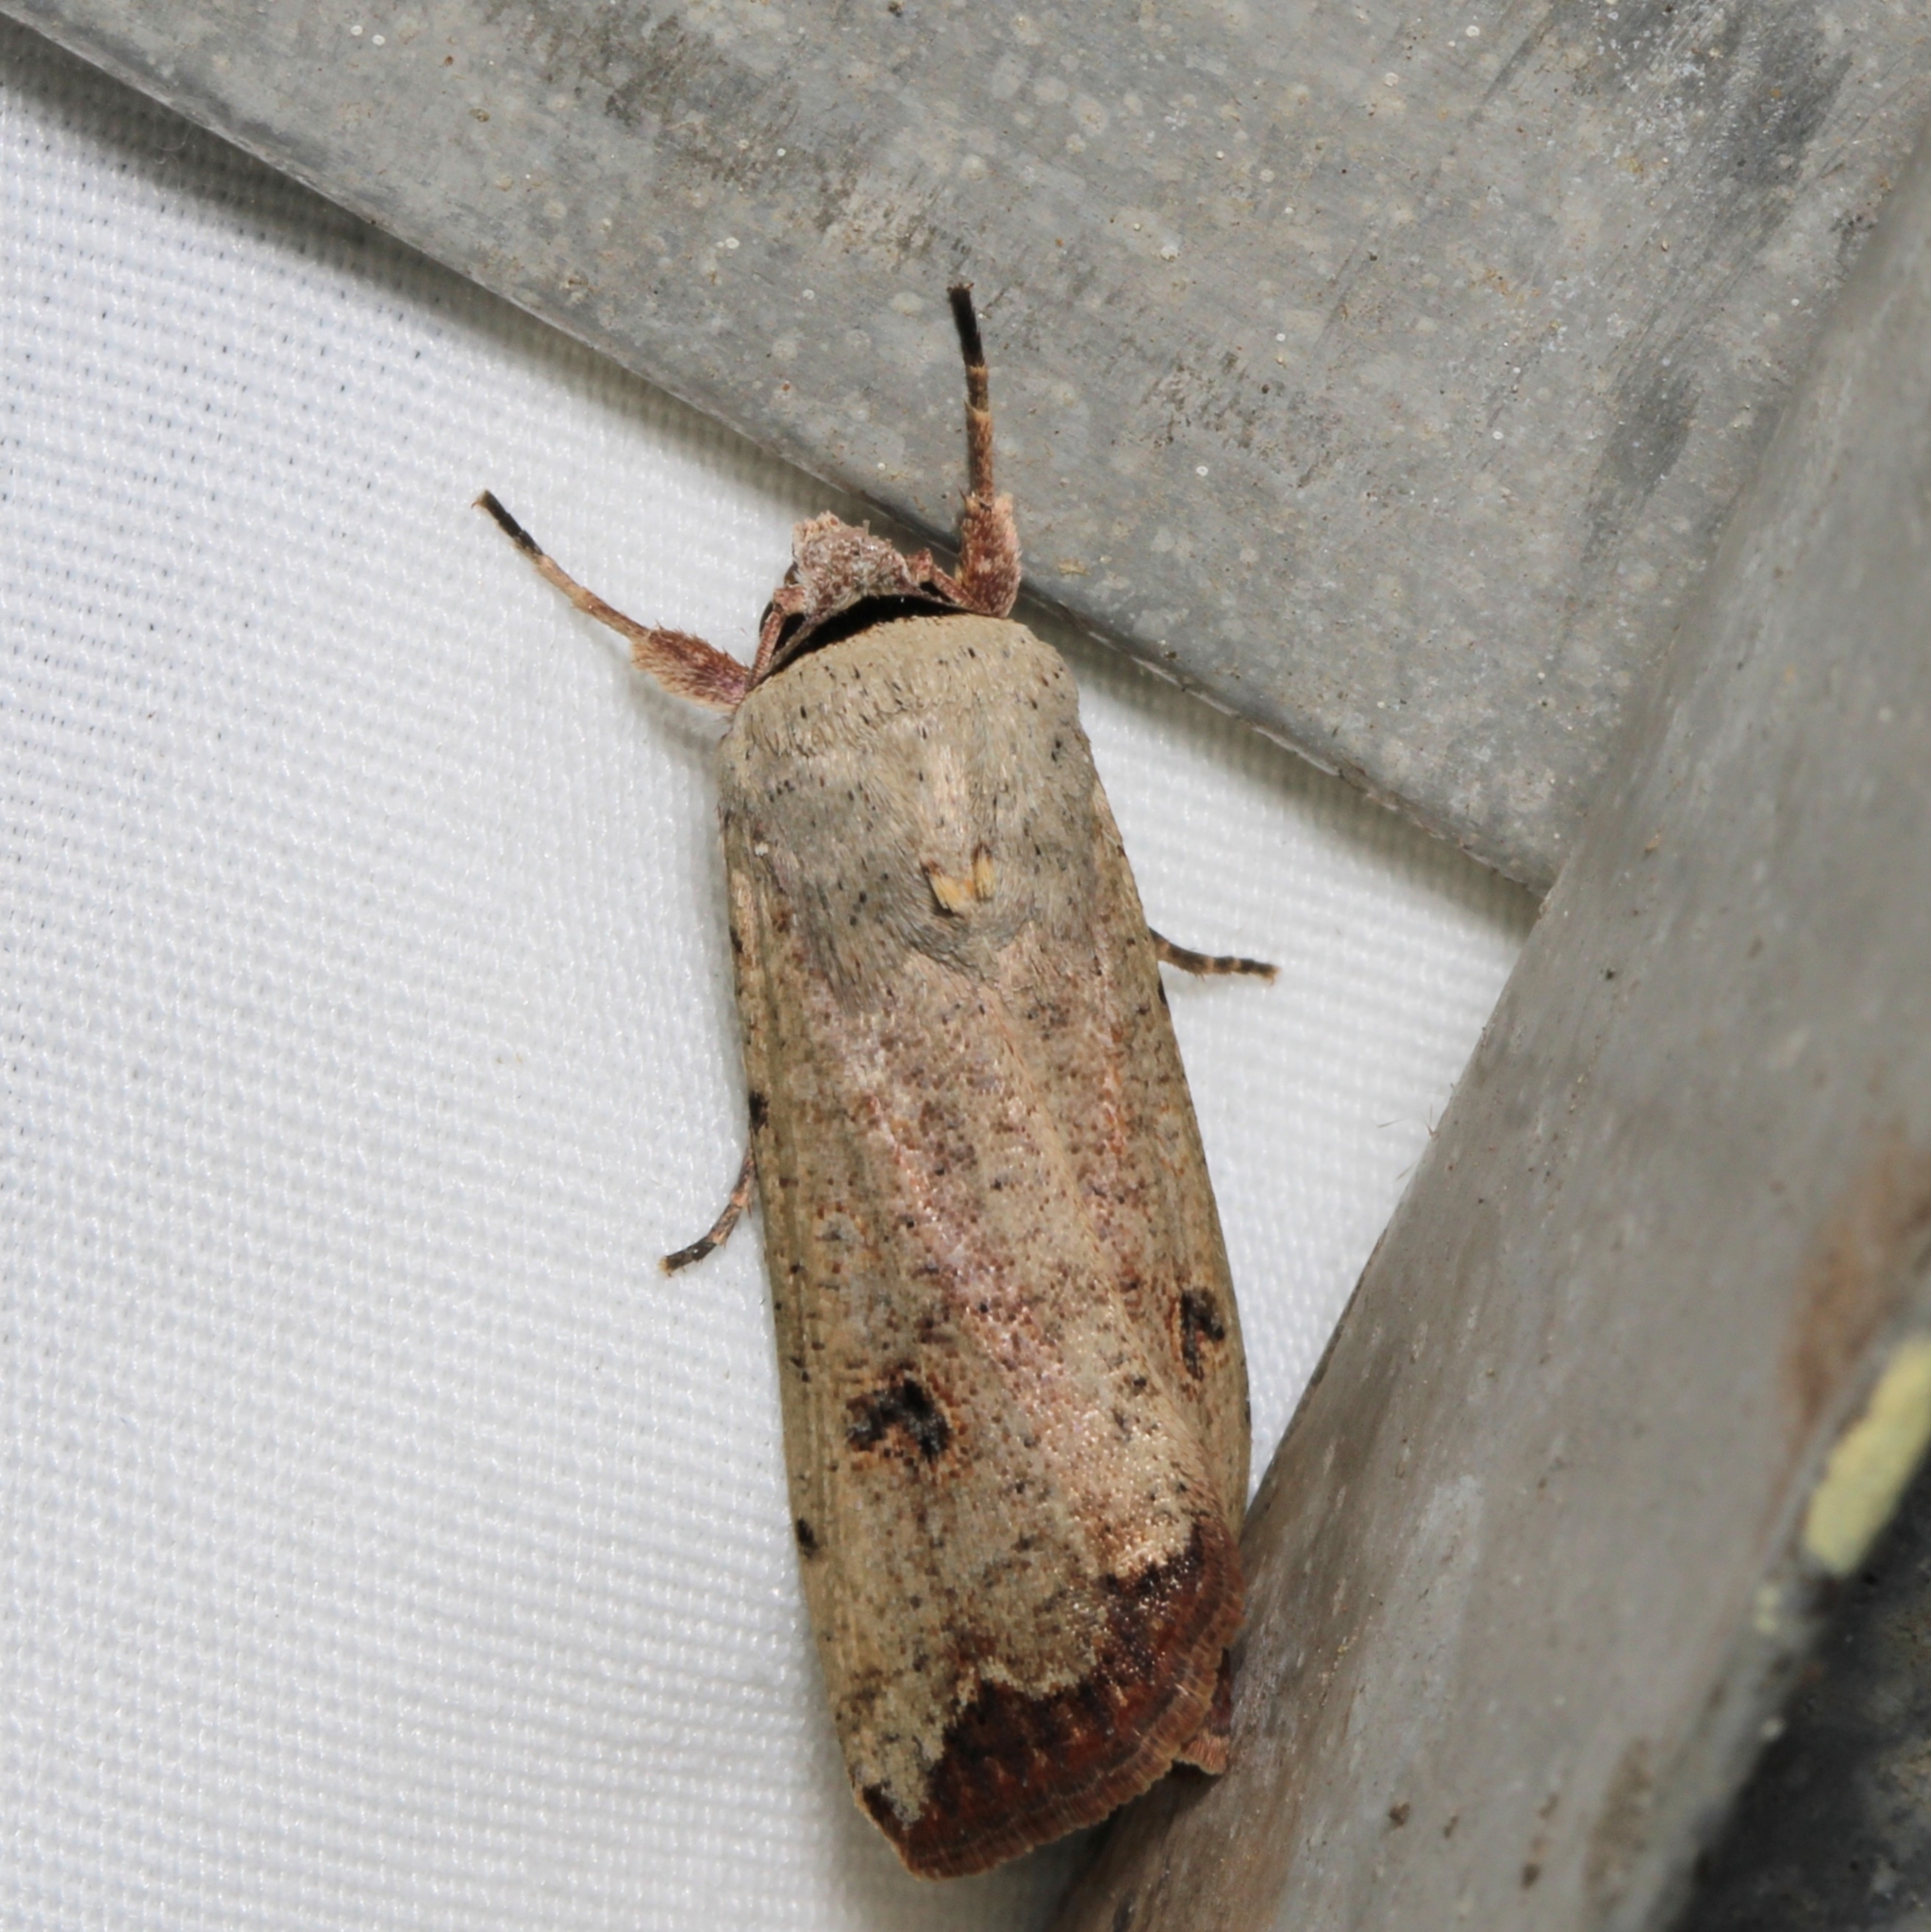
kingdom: Animalia
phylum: Arthropoda
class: Insecta
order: Lepidoptera
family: Noctuidae
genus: Anicla
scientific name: Anicla infecta
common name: Green cutworm
